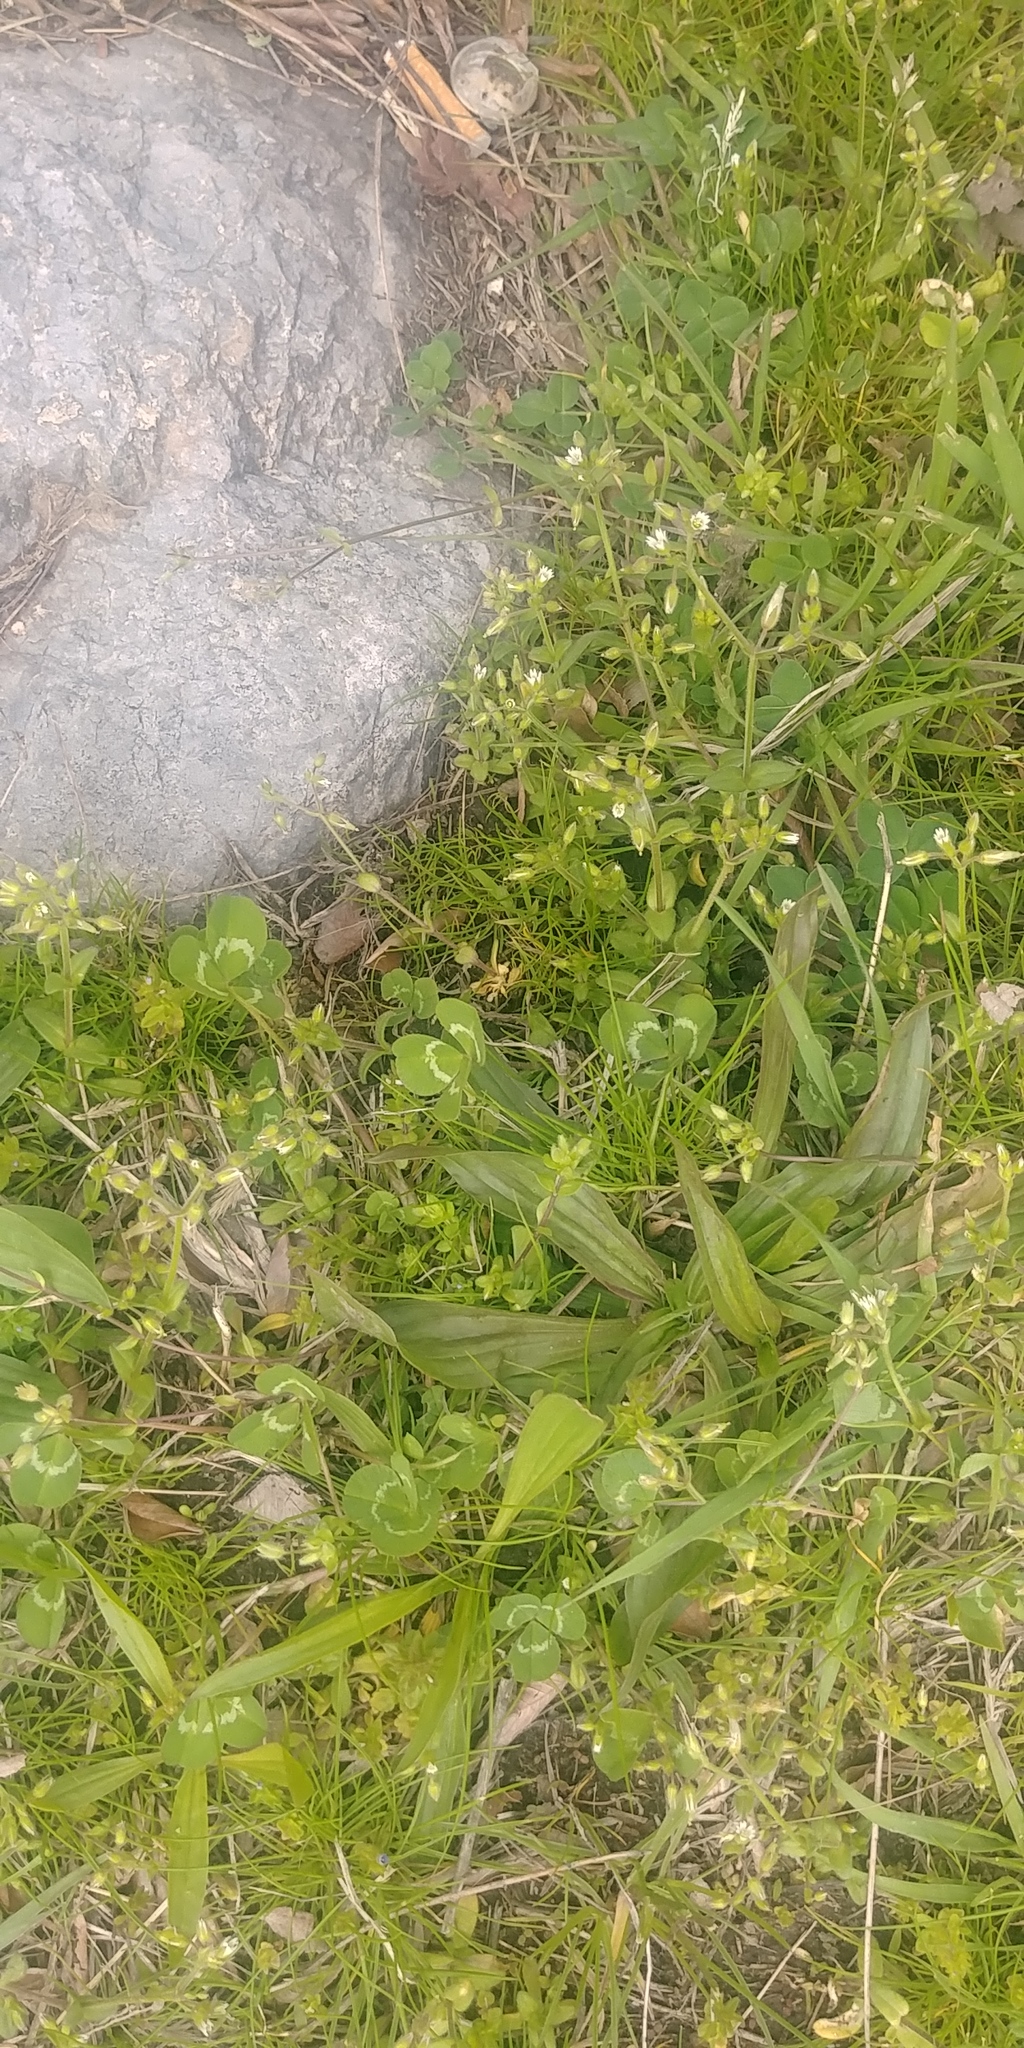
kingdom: Plantae
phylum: Tracheophyta
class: Magnoliopsida
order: Fabales
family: Fabaceae
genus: Trifolium
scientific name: Trifolium repens
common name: White clover
